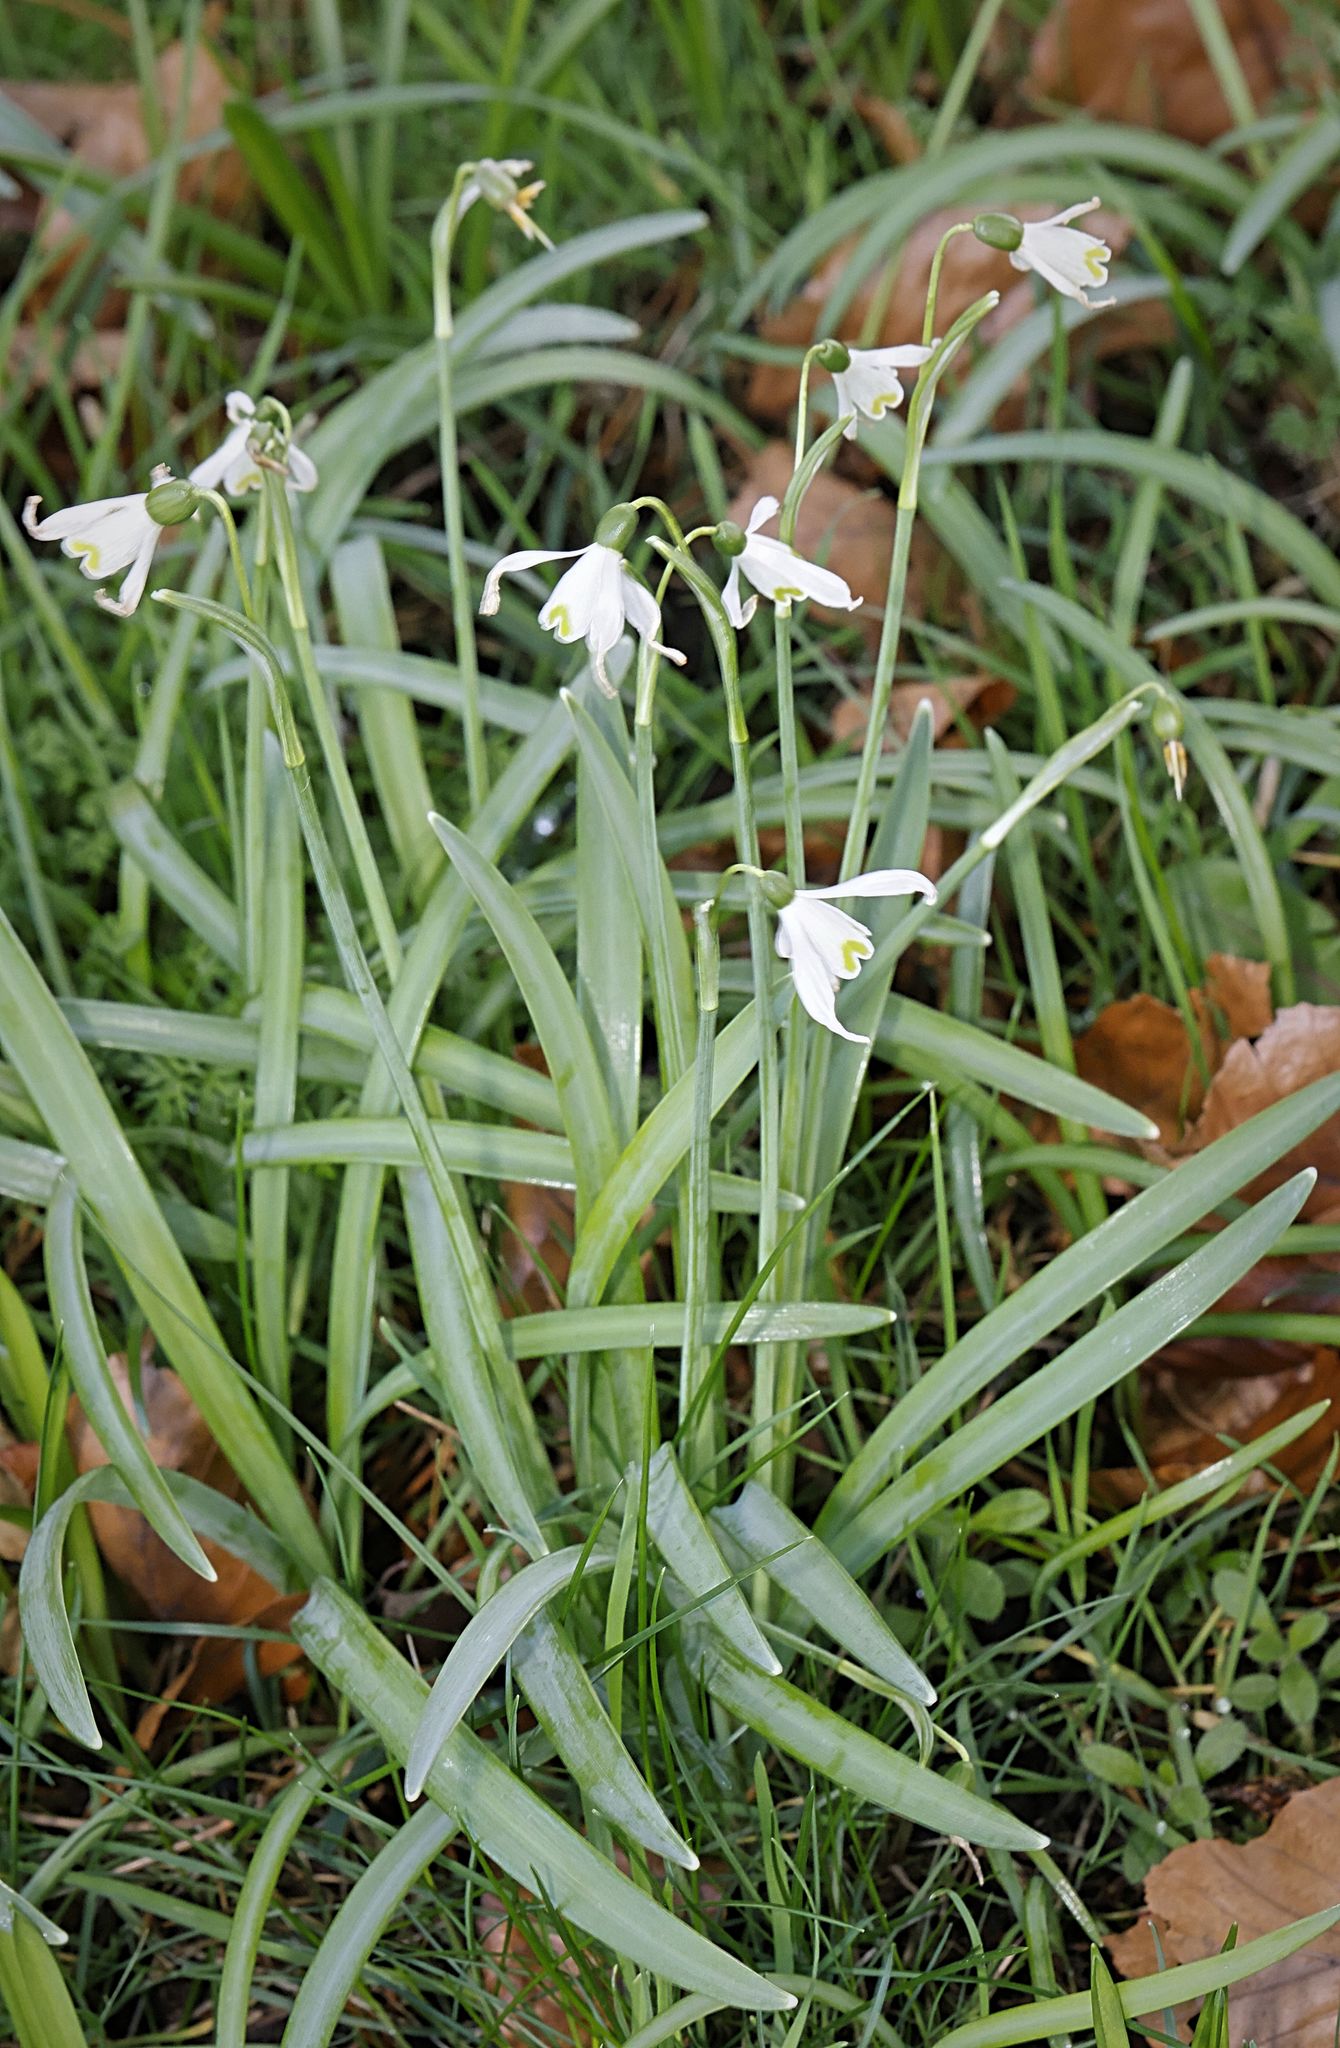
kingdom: Plantae
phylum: Tracheophyta
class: Liliopsida
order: Asparagales
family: Amaryllidaceae
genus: Galanthus
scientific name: Galanthus nivalis
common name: Snowdrop
